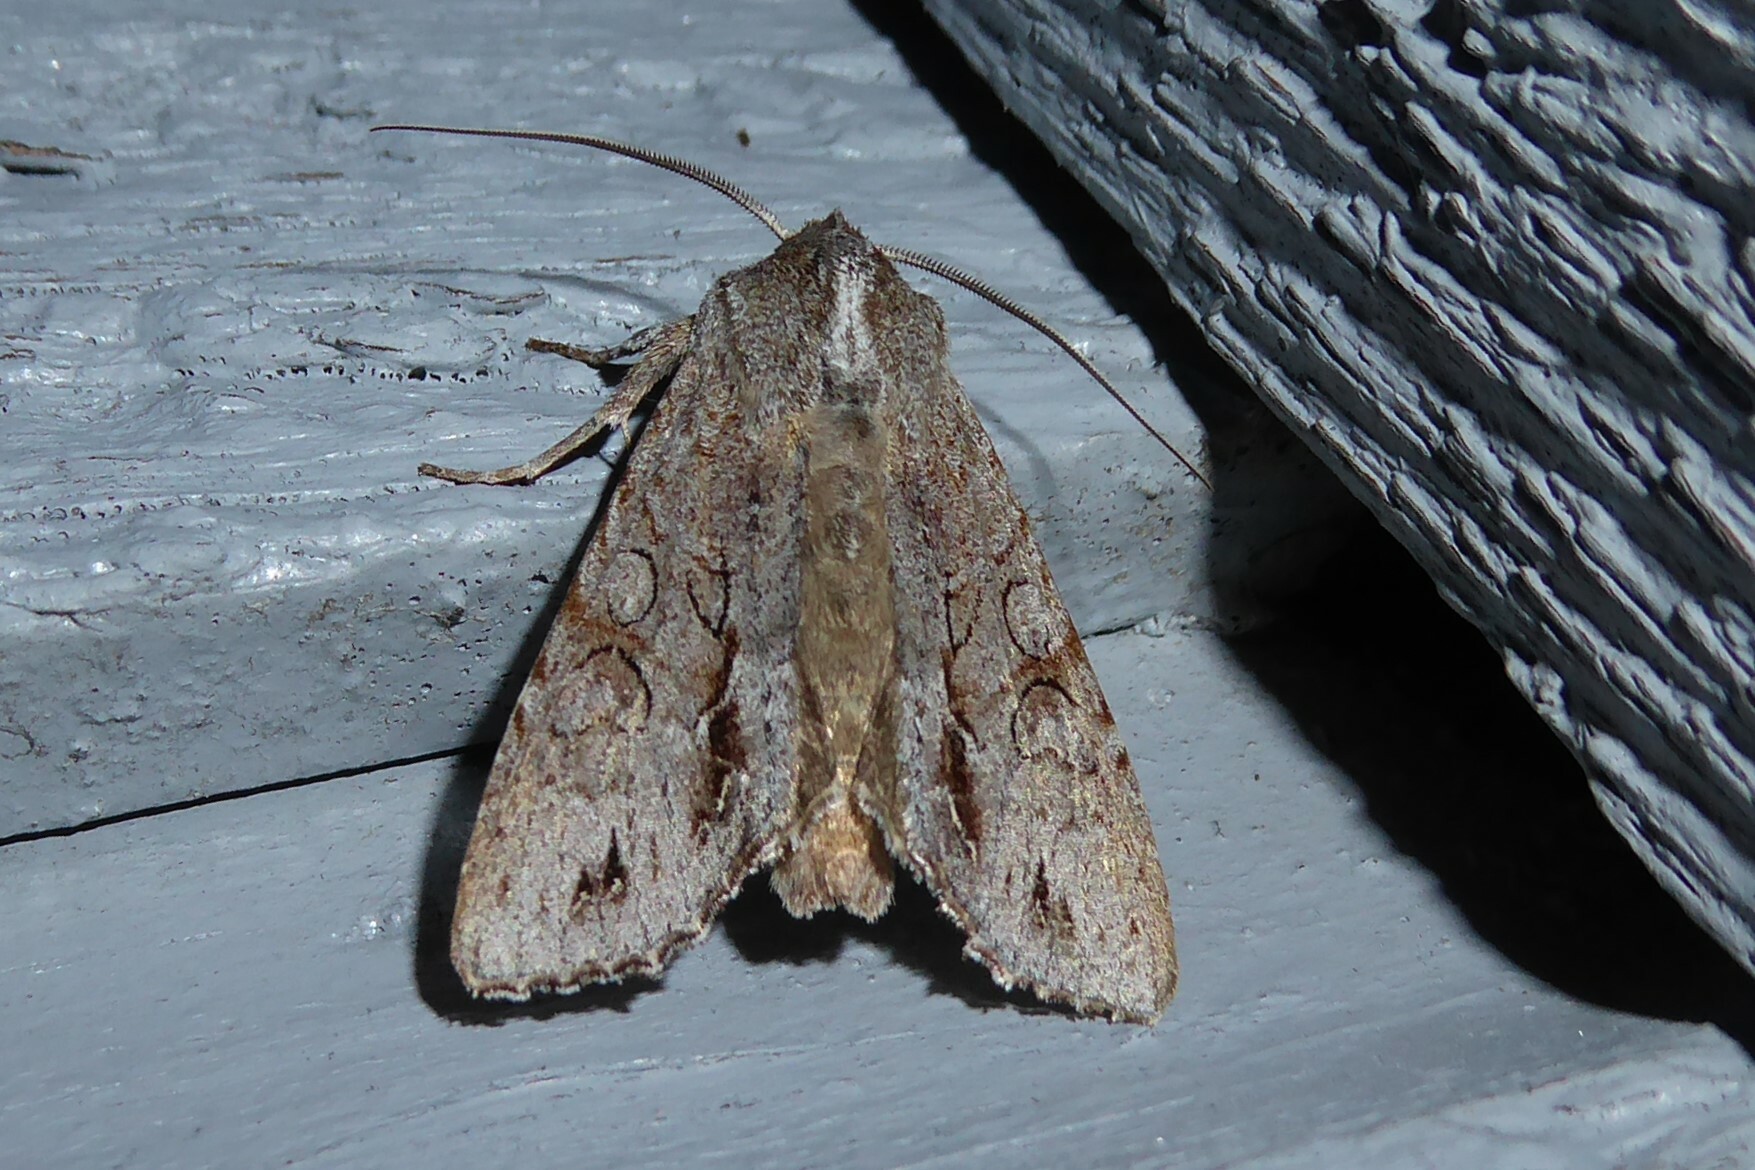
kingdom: Animalia
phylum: Arthropoda
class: Insecta
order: Lepidoptera
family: Noctuidae
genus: Ichneutica
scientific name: Ichneutica
